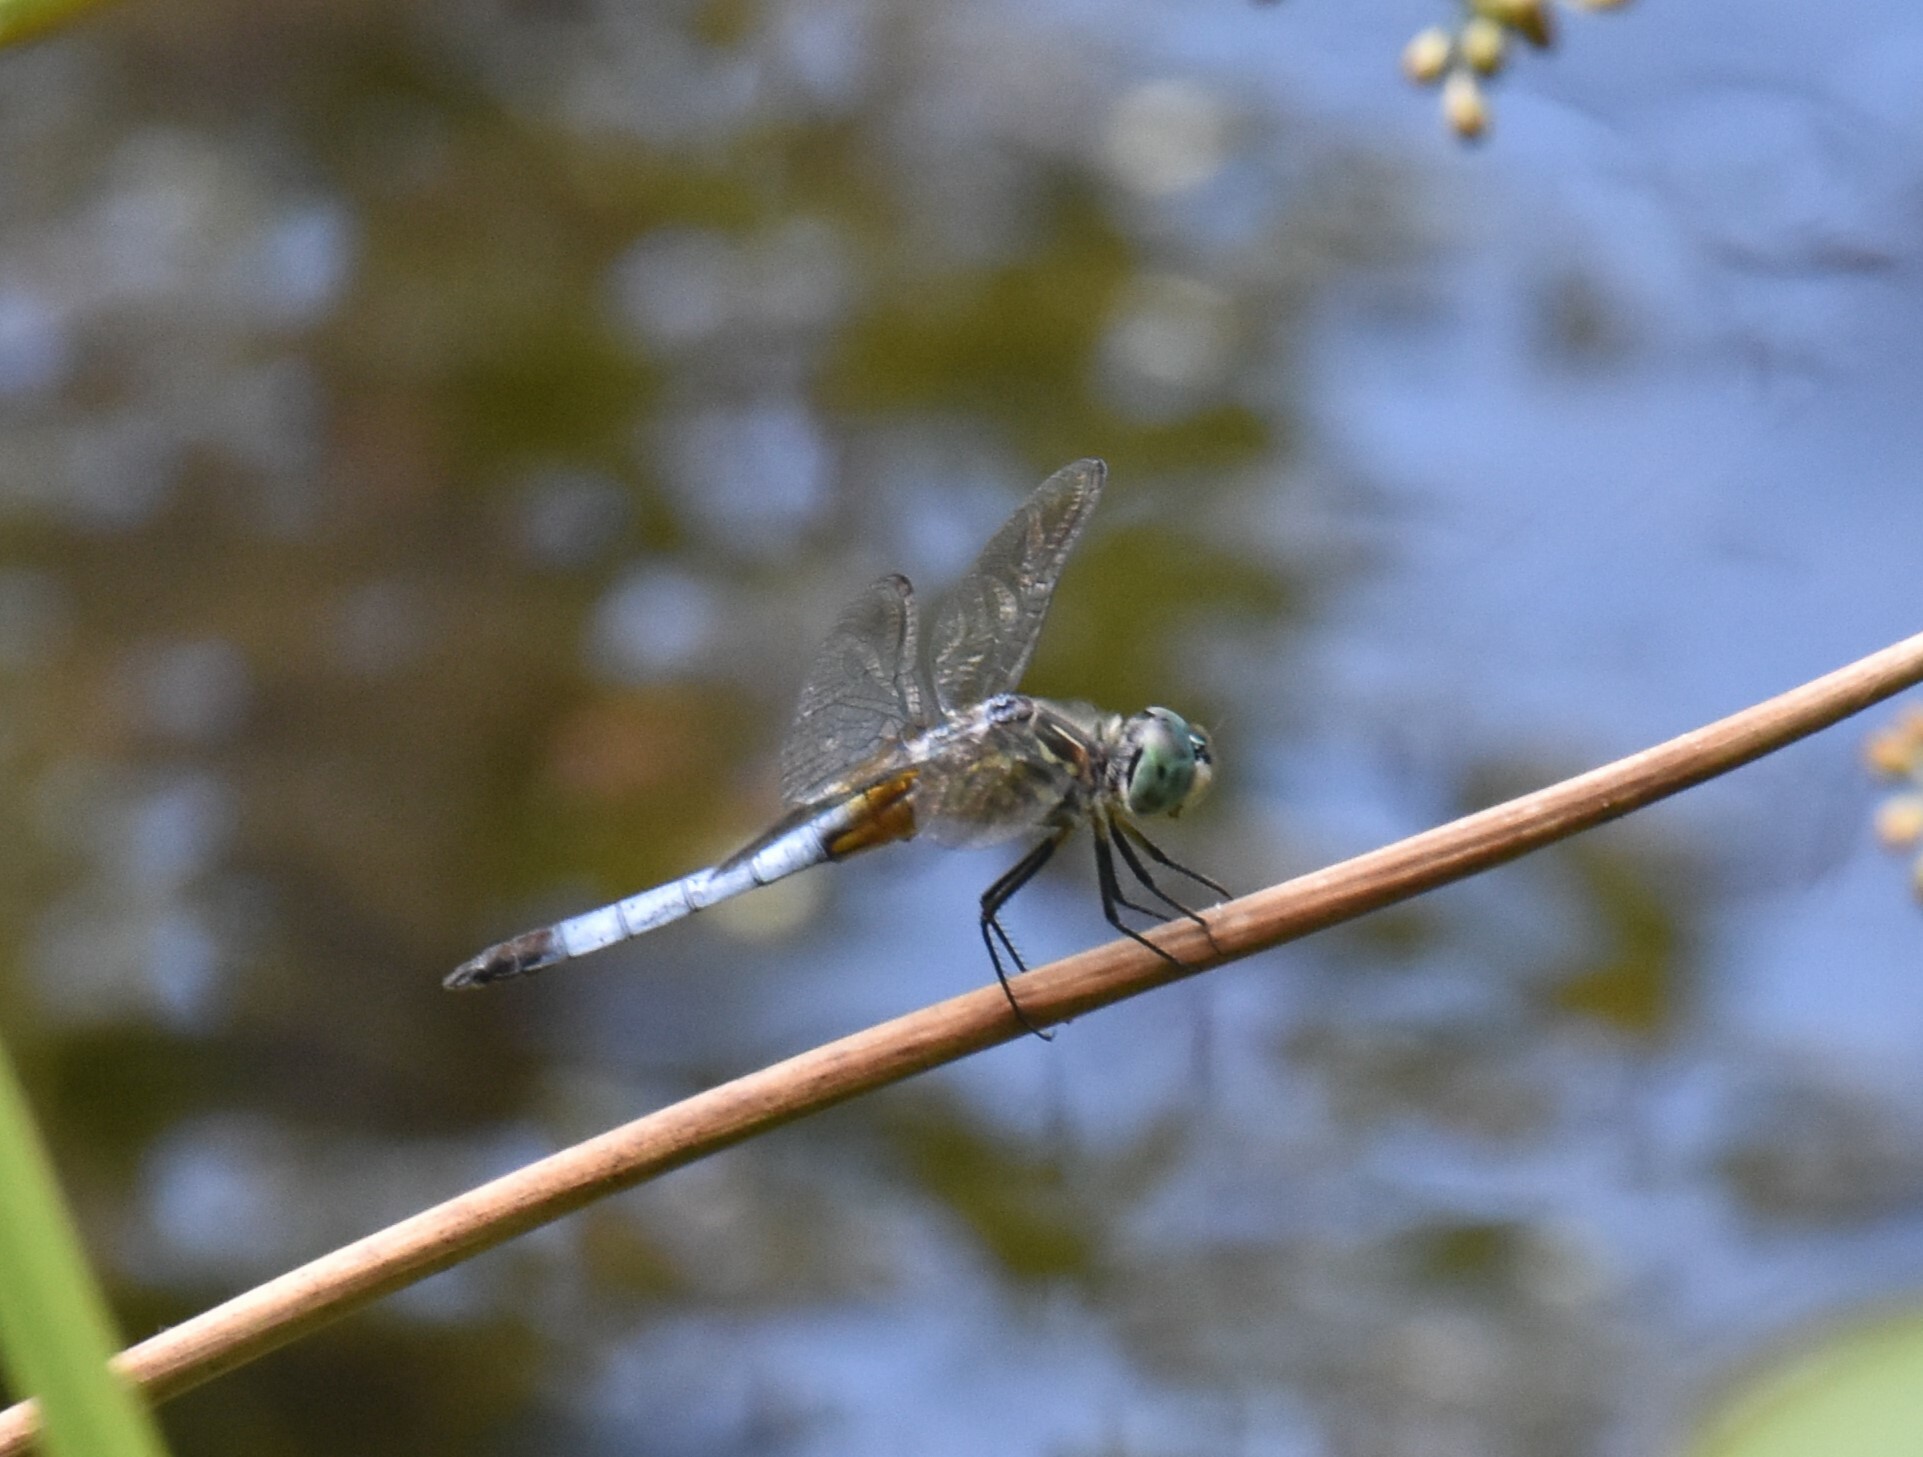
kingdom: Animalia
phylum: Arthropoda
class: Insecta
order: Odonata
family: Libellulidae
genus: Pachydiplax
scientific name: Pachydiplax longipennis
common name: Blue dasher
